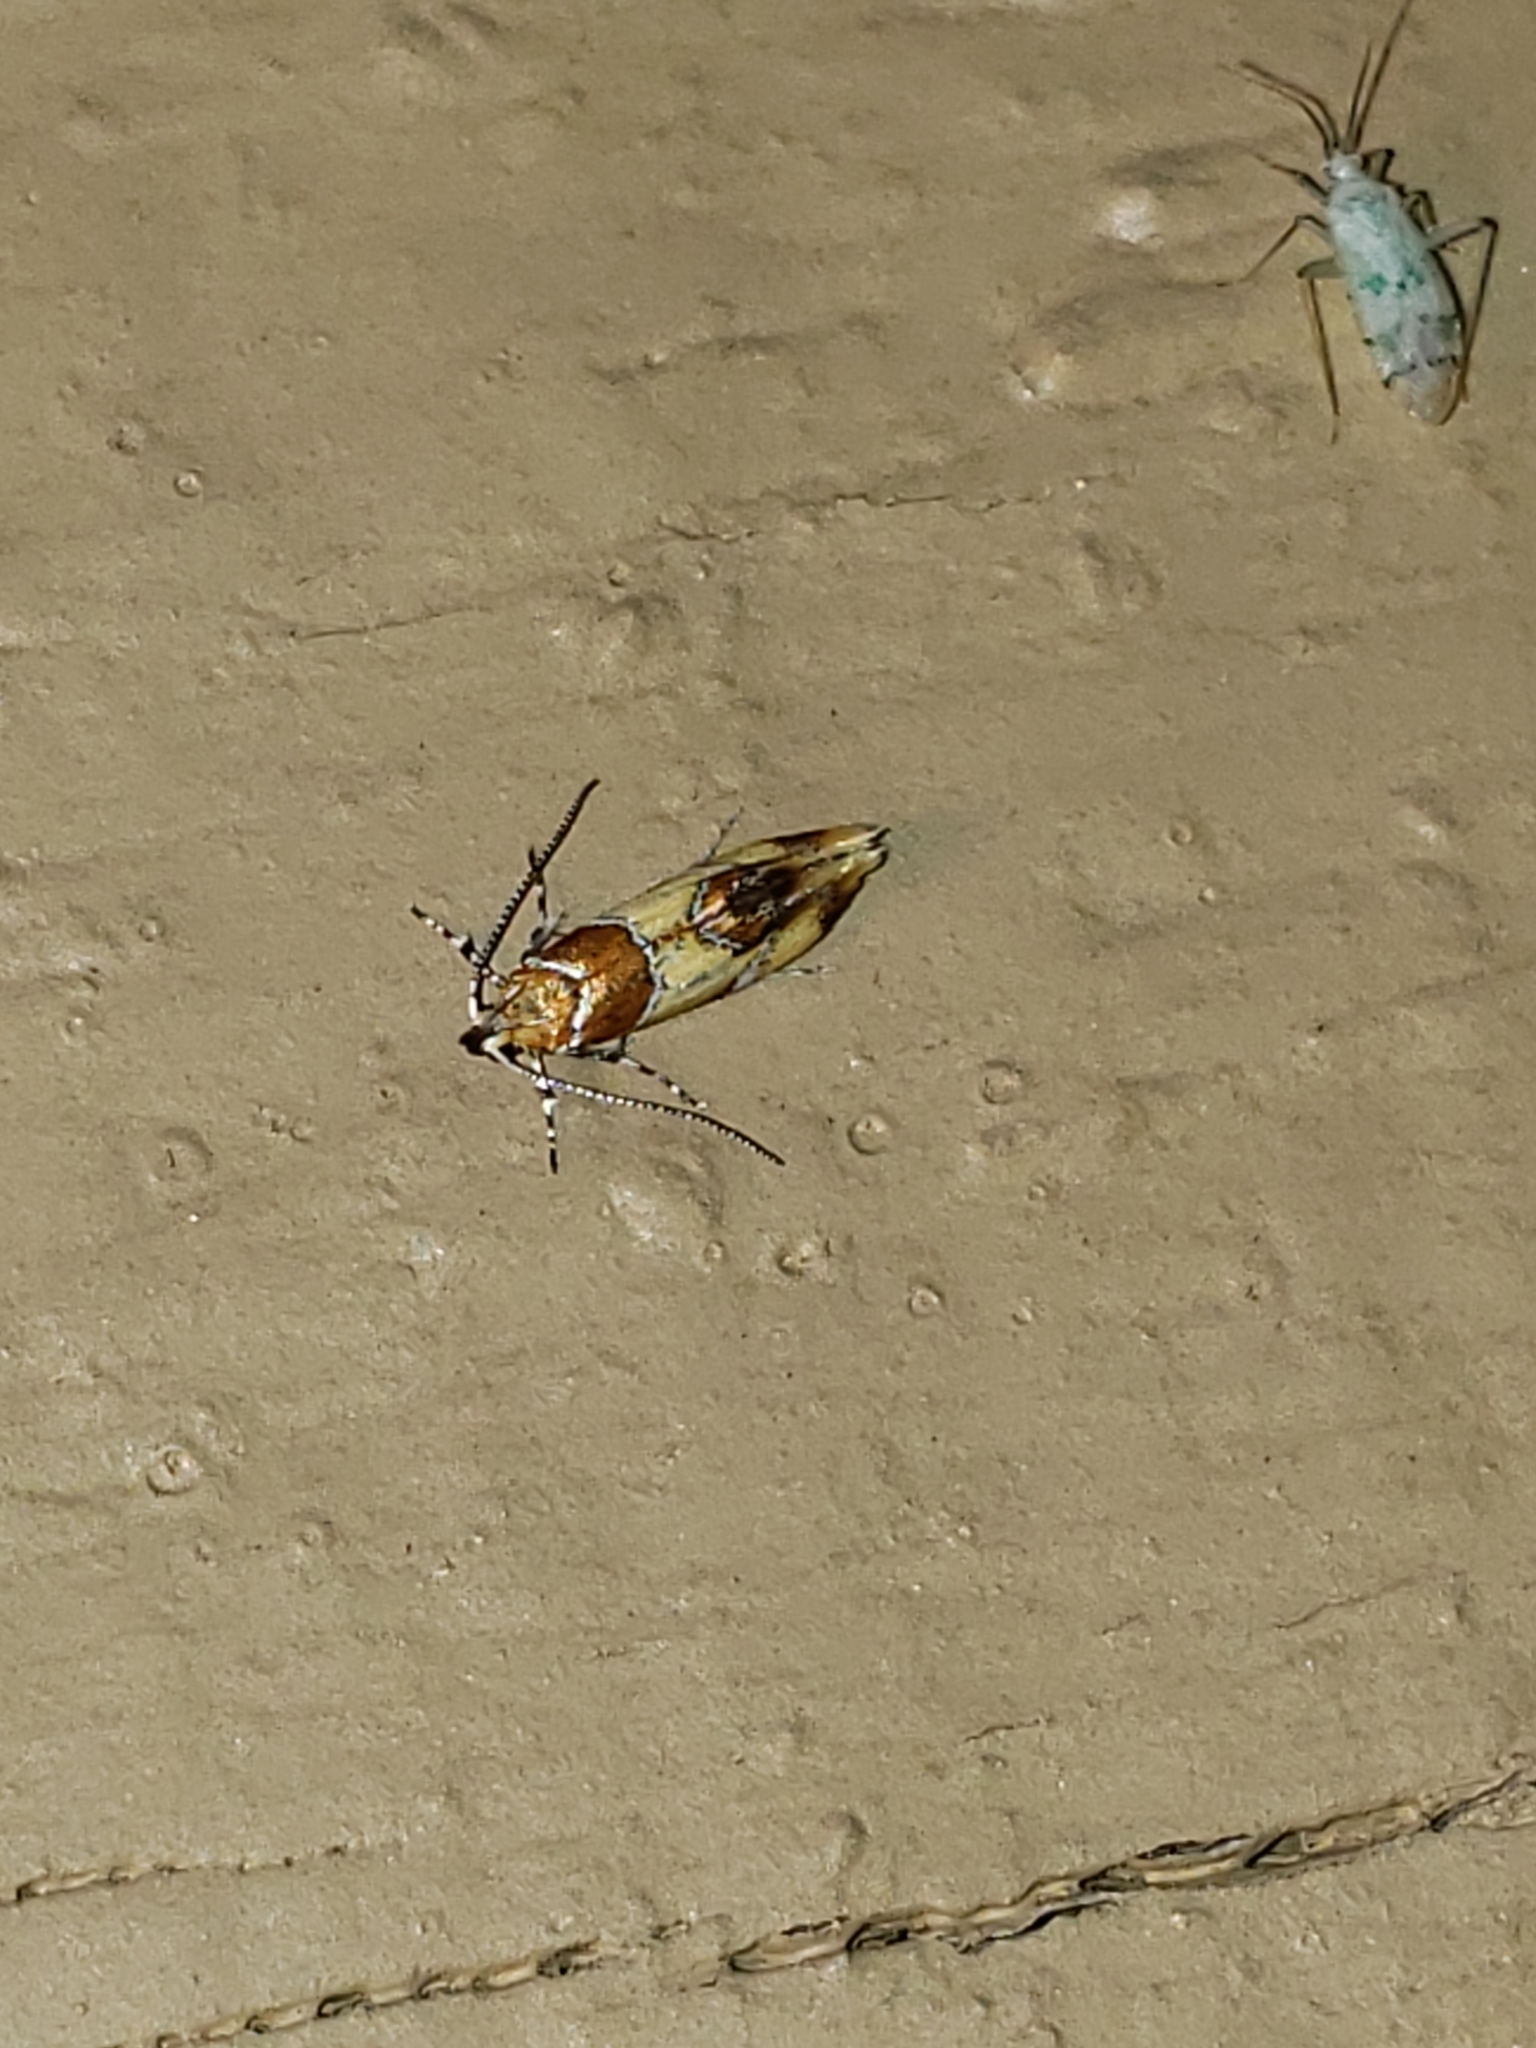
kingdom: Animalia
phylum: Arthropoda
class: Insecta
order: Lepidoptera
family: Oecophoridae
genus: Callima
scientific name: Callima argenticinctella
